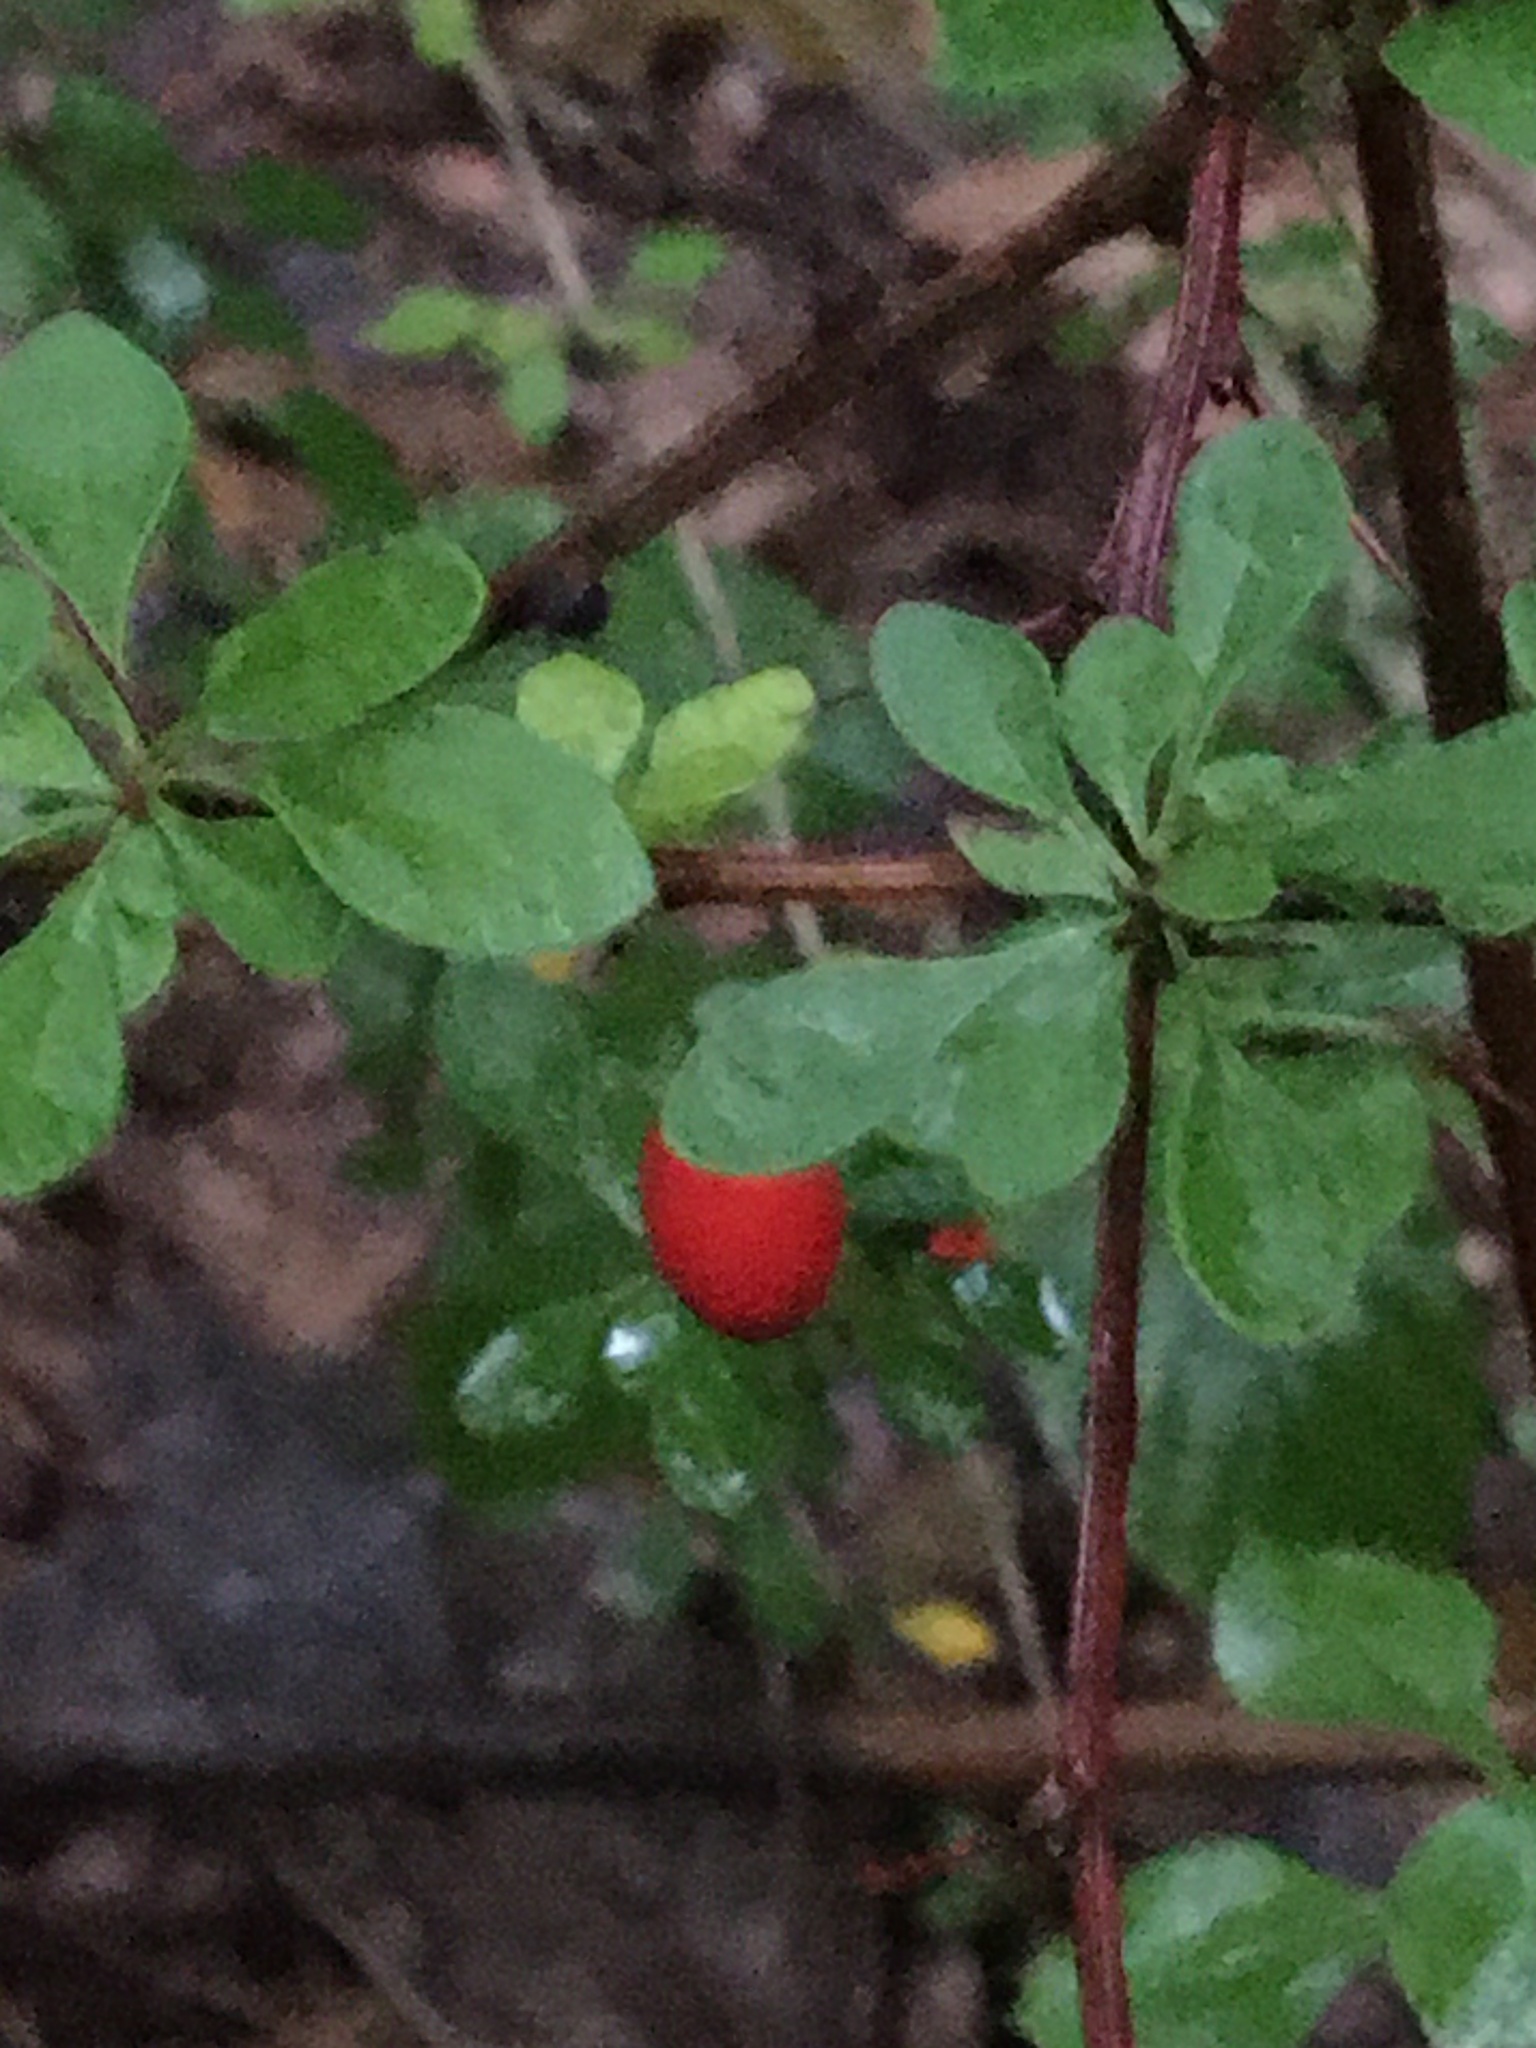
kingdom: Plantae
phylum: Tracheophyta
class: Magnoliopsida
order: Ranunculales
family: Berberidaceae
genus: Berberis
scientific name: Berberis thunbergii
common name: Japanese barberry
